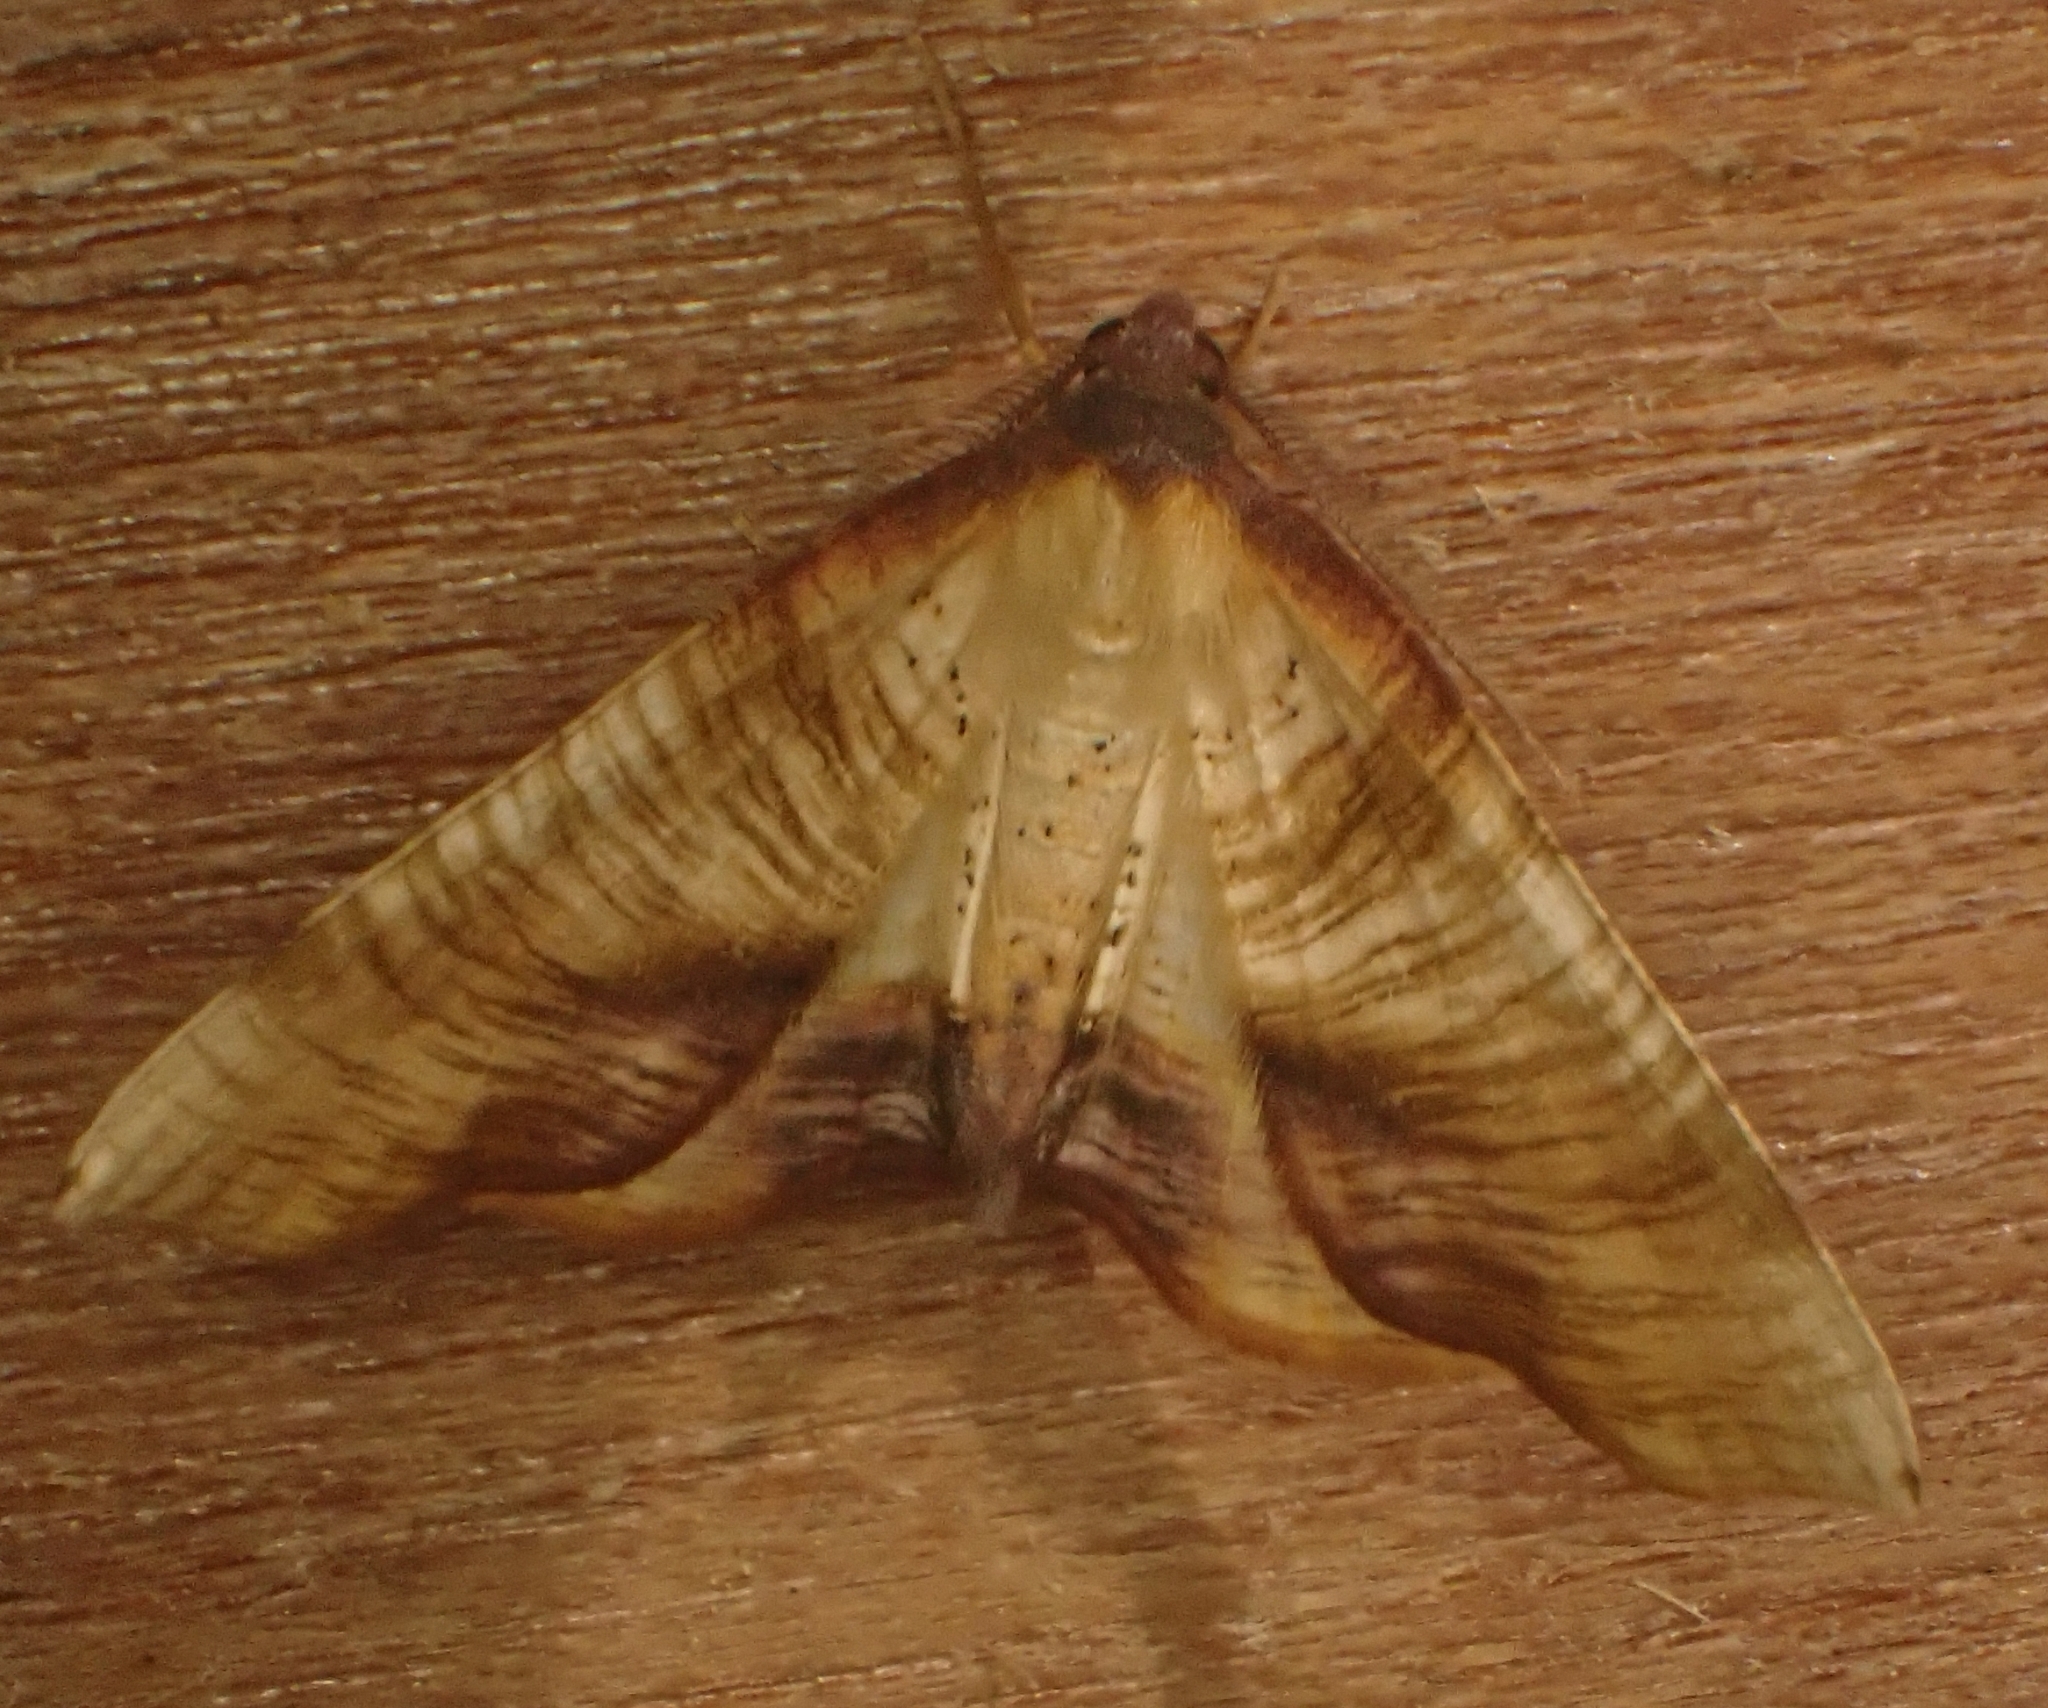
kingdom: Animalia
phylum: Arthropoda
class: Insecta
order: Lepidoptera
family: Geometridae
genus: Plagodis
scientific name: Plagodis dolabraria
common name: Scorched wing
